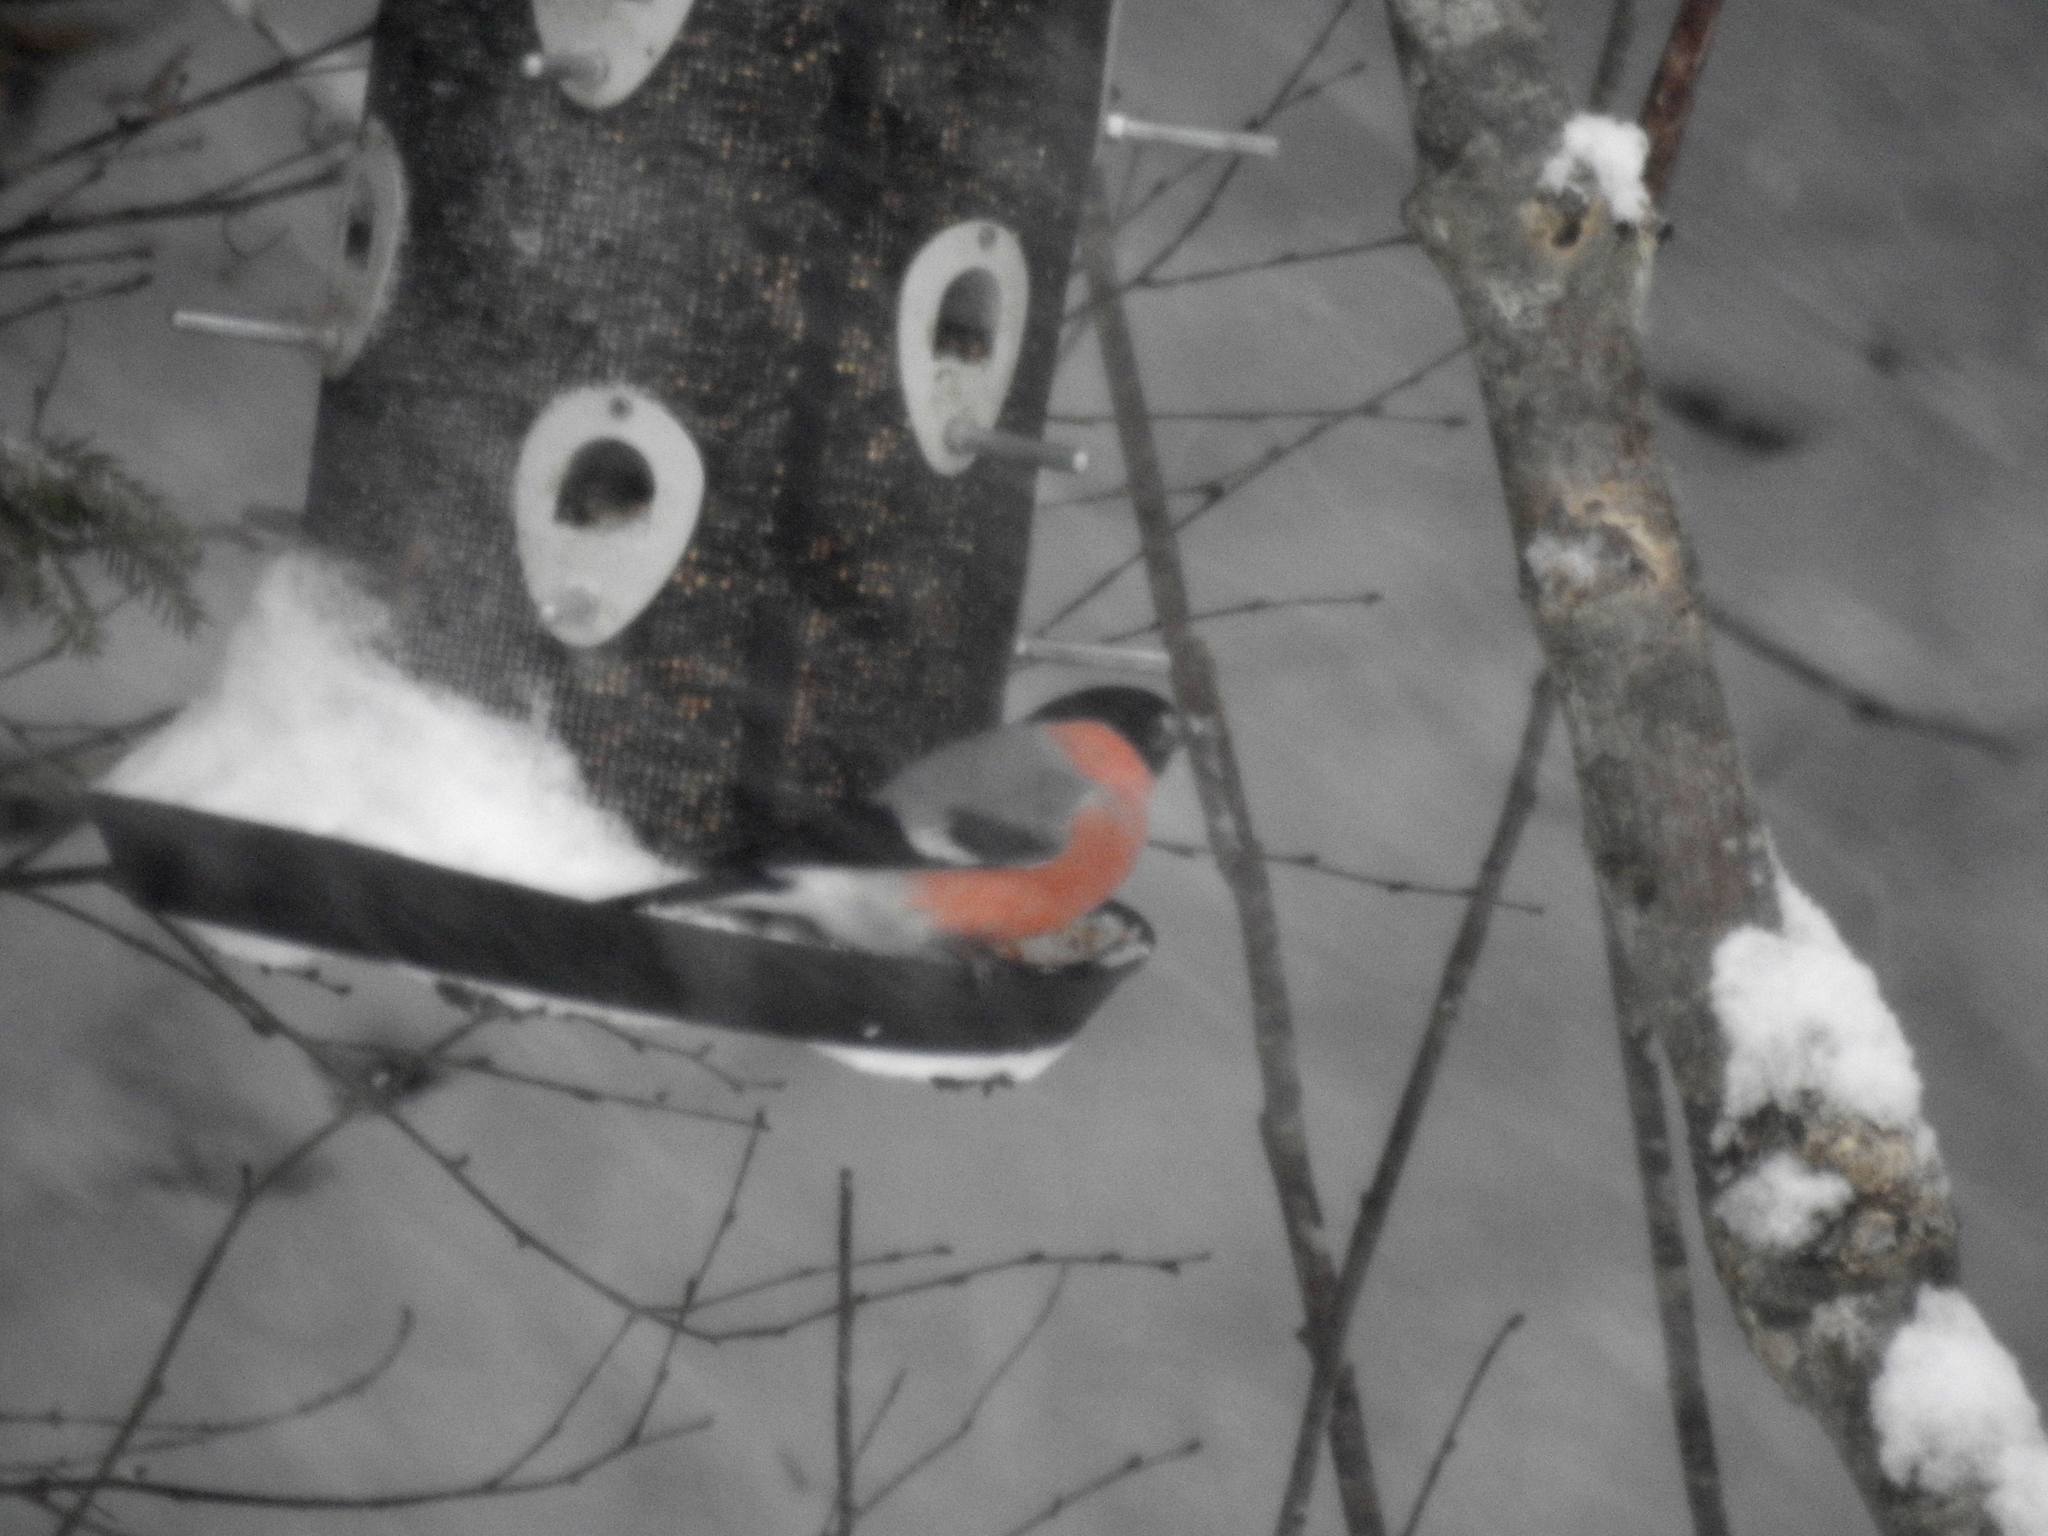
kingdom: Animalia
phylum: Chordata
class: Aves
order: Passeriformes
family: Fringillidae
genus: Pyrrhula
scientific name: Pyrrhula pyrrhula
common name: Eurasian bullfinch
